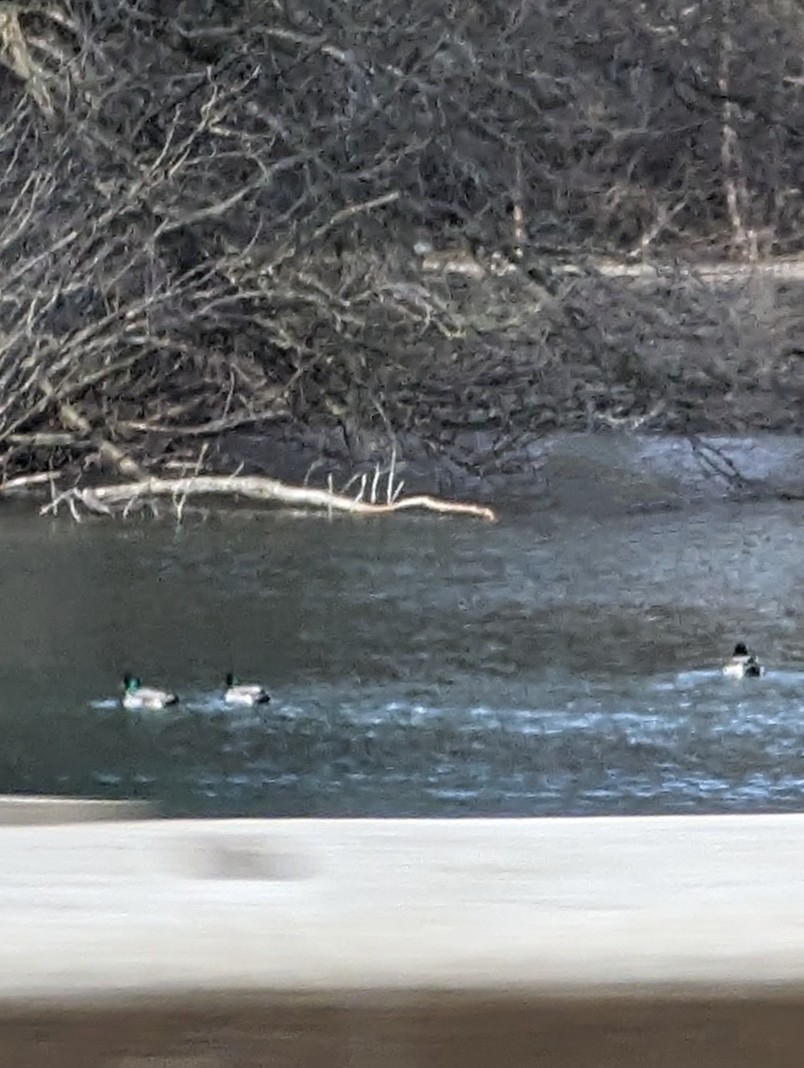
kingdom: Animalia
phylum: Chordata
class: Aves
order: Anseriformes
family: Anatidae
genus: Anas
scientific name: Anas platyrhynchos
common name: Mallard
